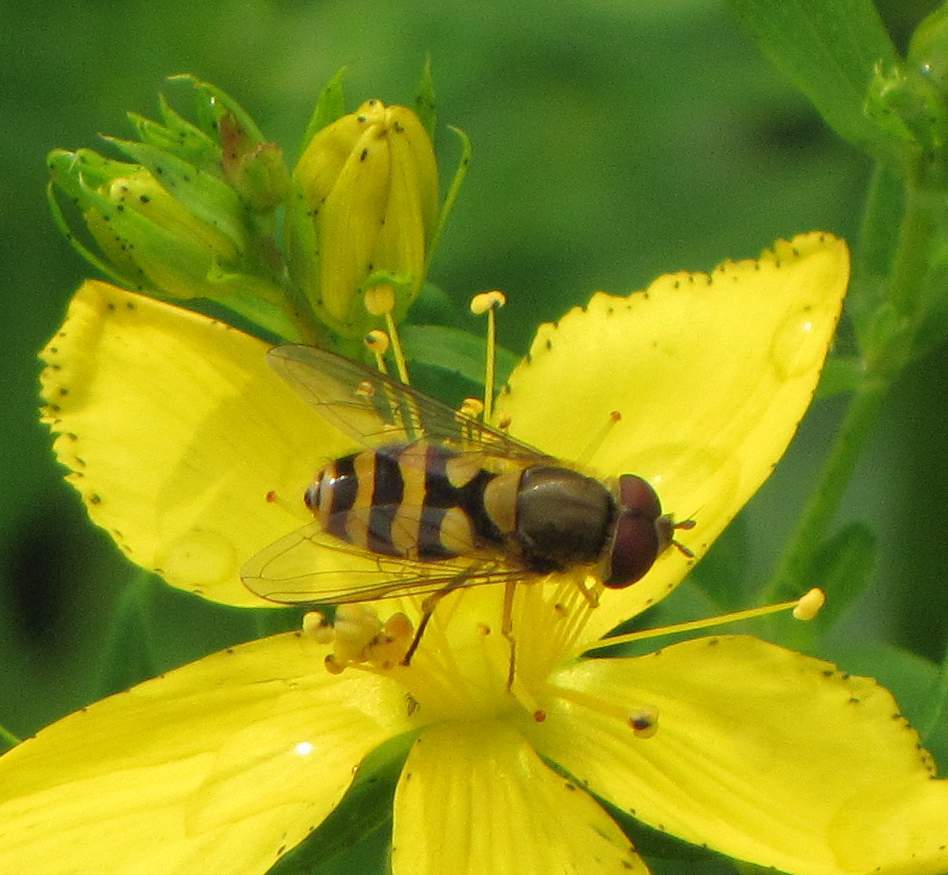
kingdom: Animalia
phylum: Arthropoda
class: Insecta
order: Diptera
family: Syrphidae
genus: Syrphus
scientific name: Syrphus
